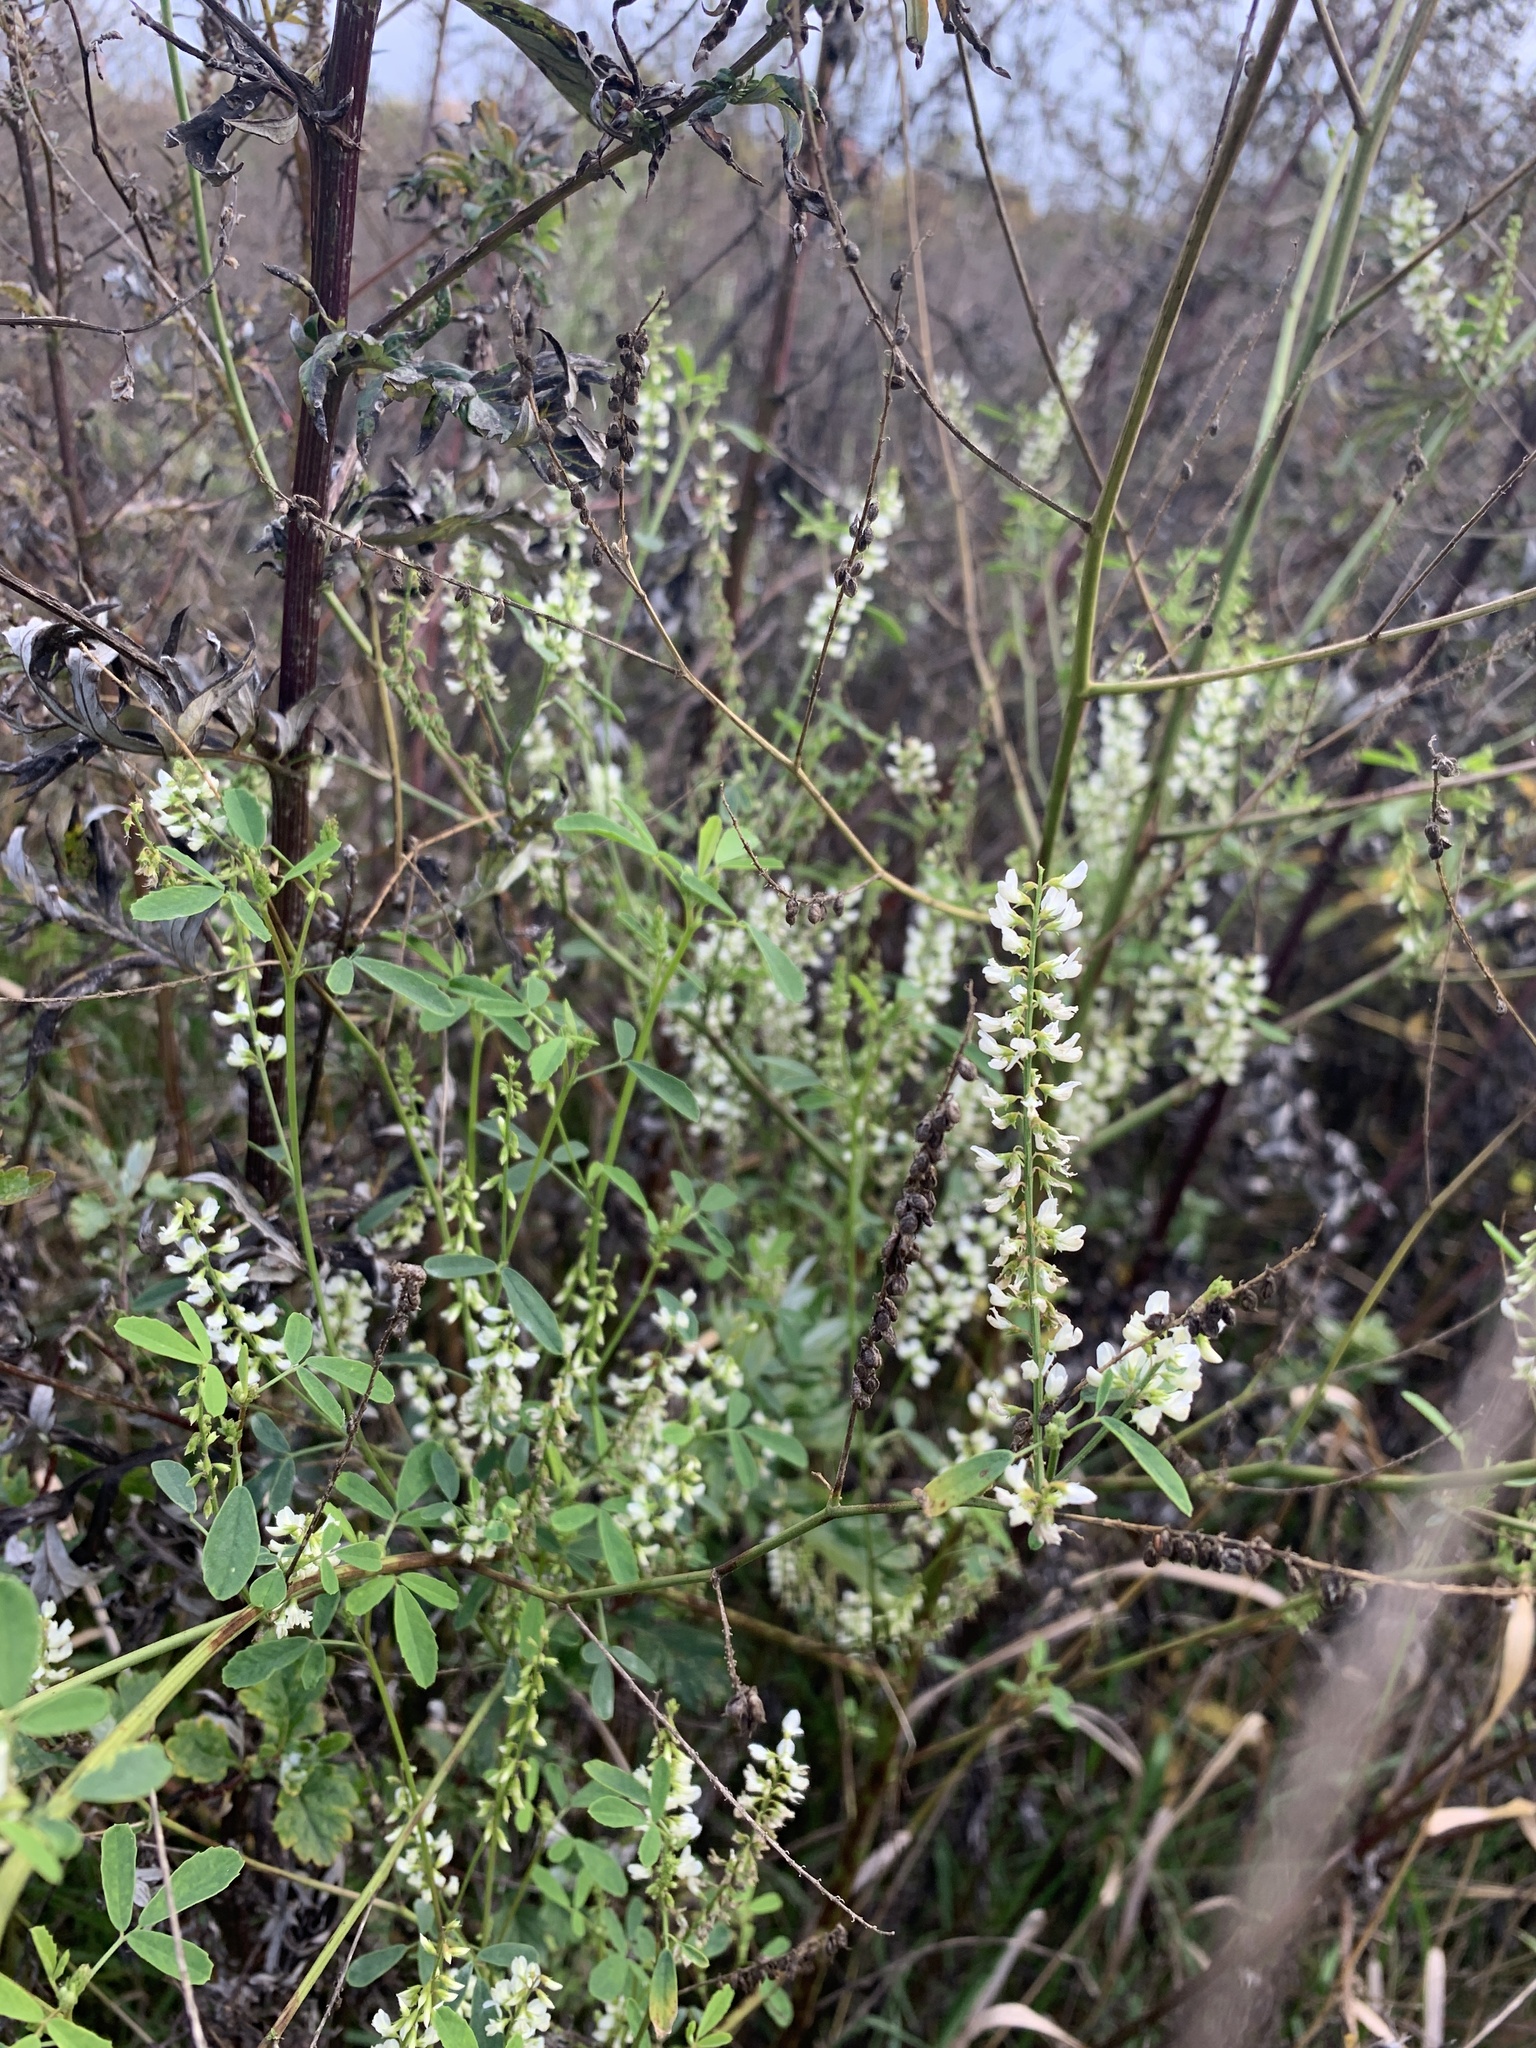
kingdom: Plantae
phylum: Tracheophyta
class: Magnoliopsida
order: Fabales
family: Fabaceae
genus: Melilotus
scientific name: Melilotus albus
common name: White melilot
